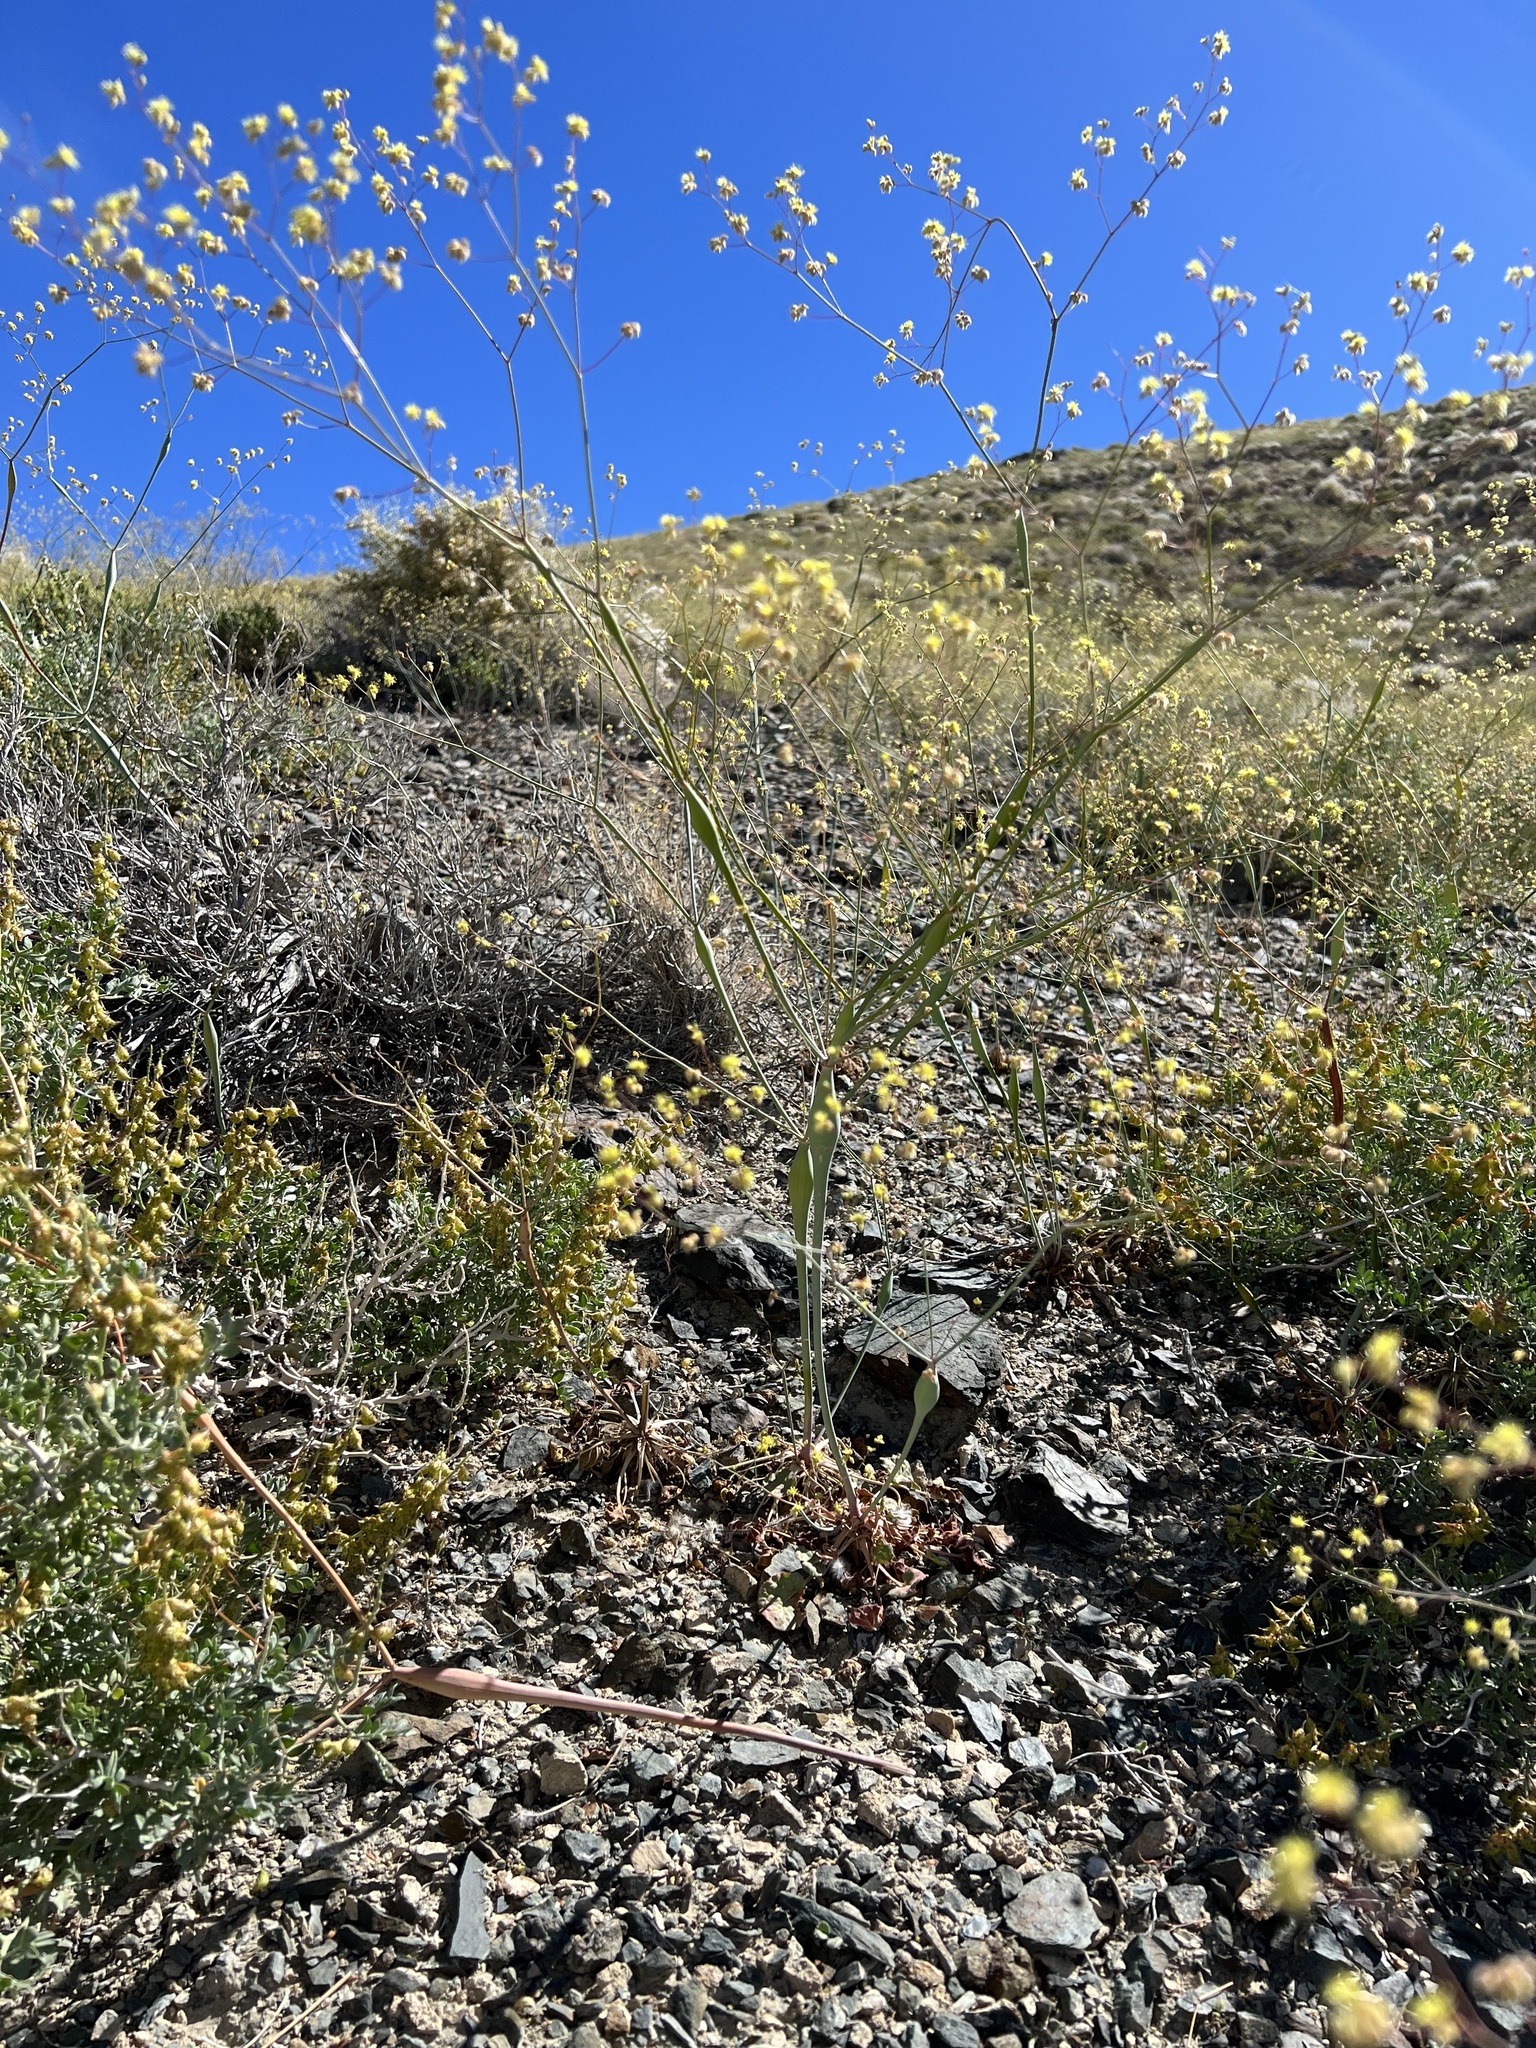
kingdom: Plantae
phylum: Tracheophyta
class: Magnoliopsida
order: Caryophyllales
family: Polygonaceae
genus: Eriogonum
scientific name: Eriogonum inflatum
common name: Desert trumpet
